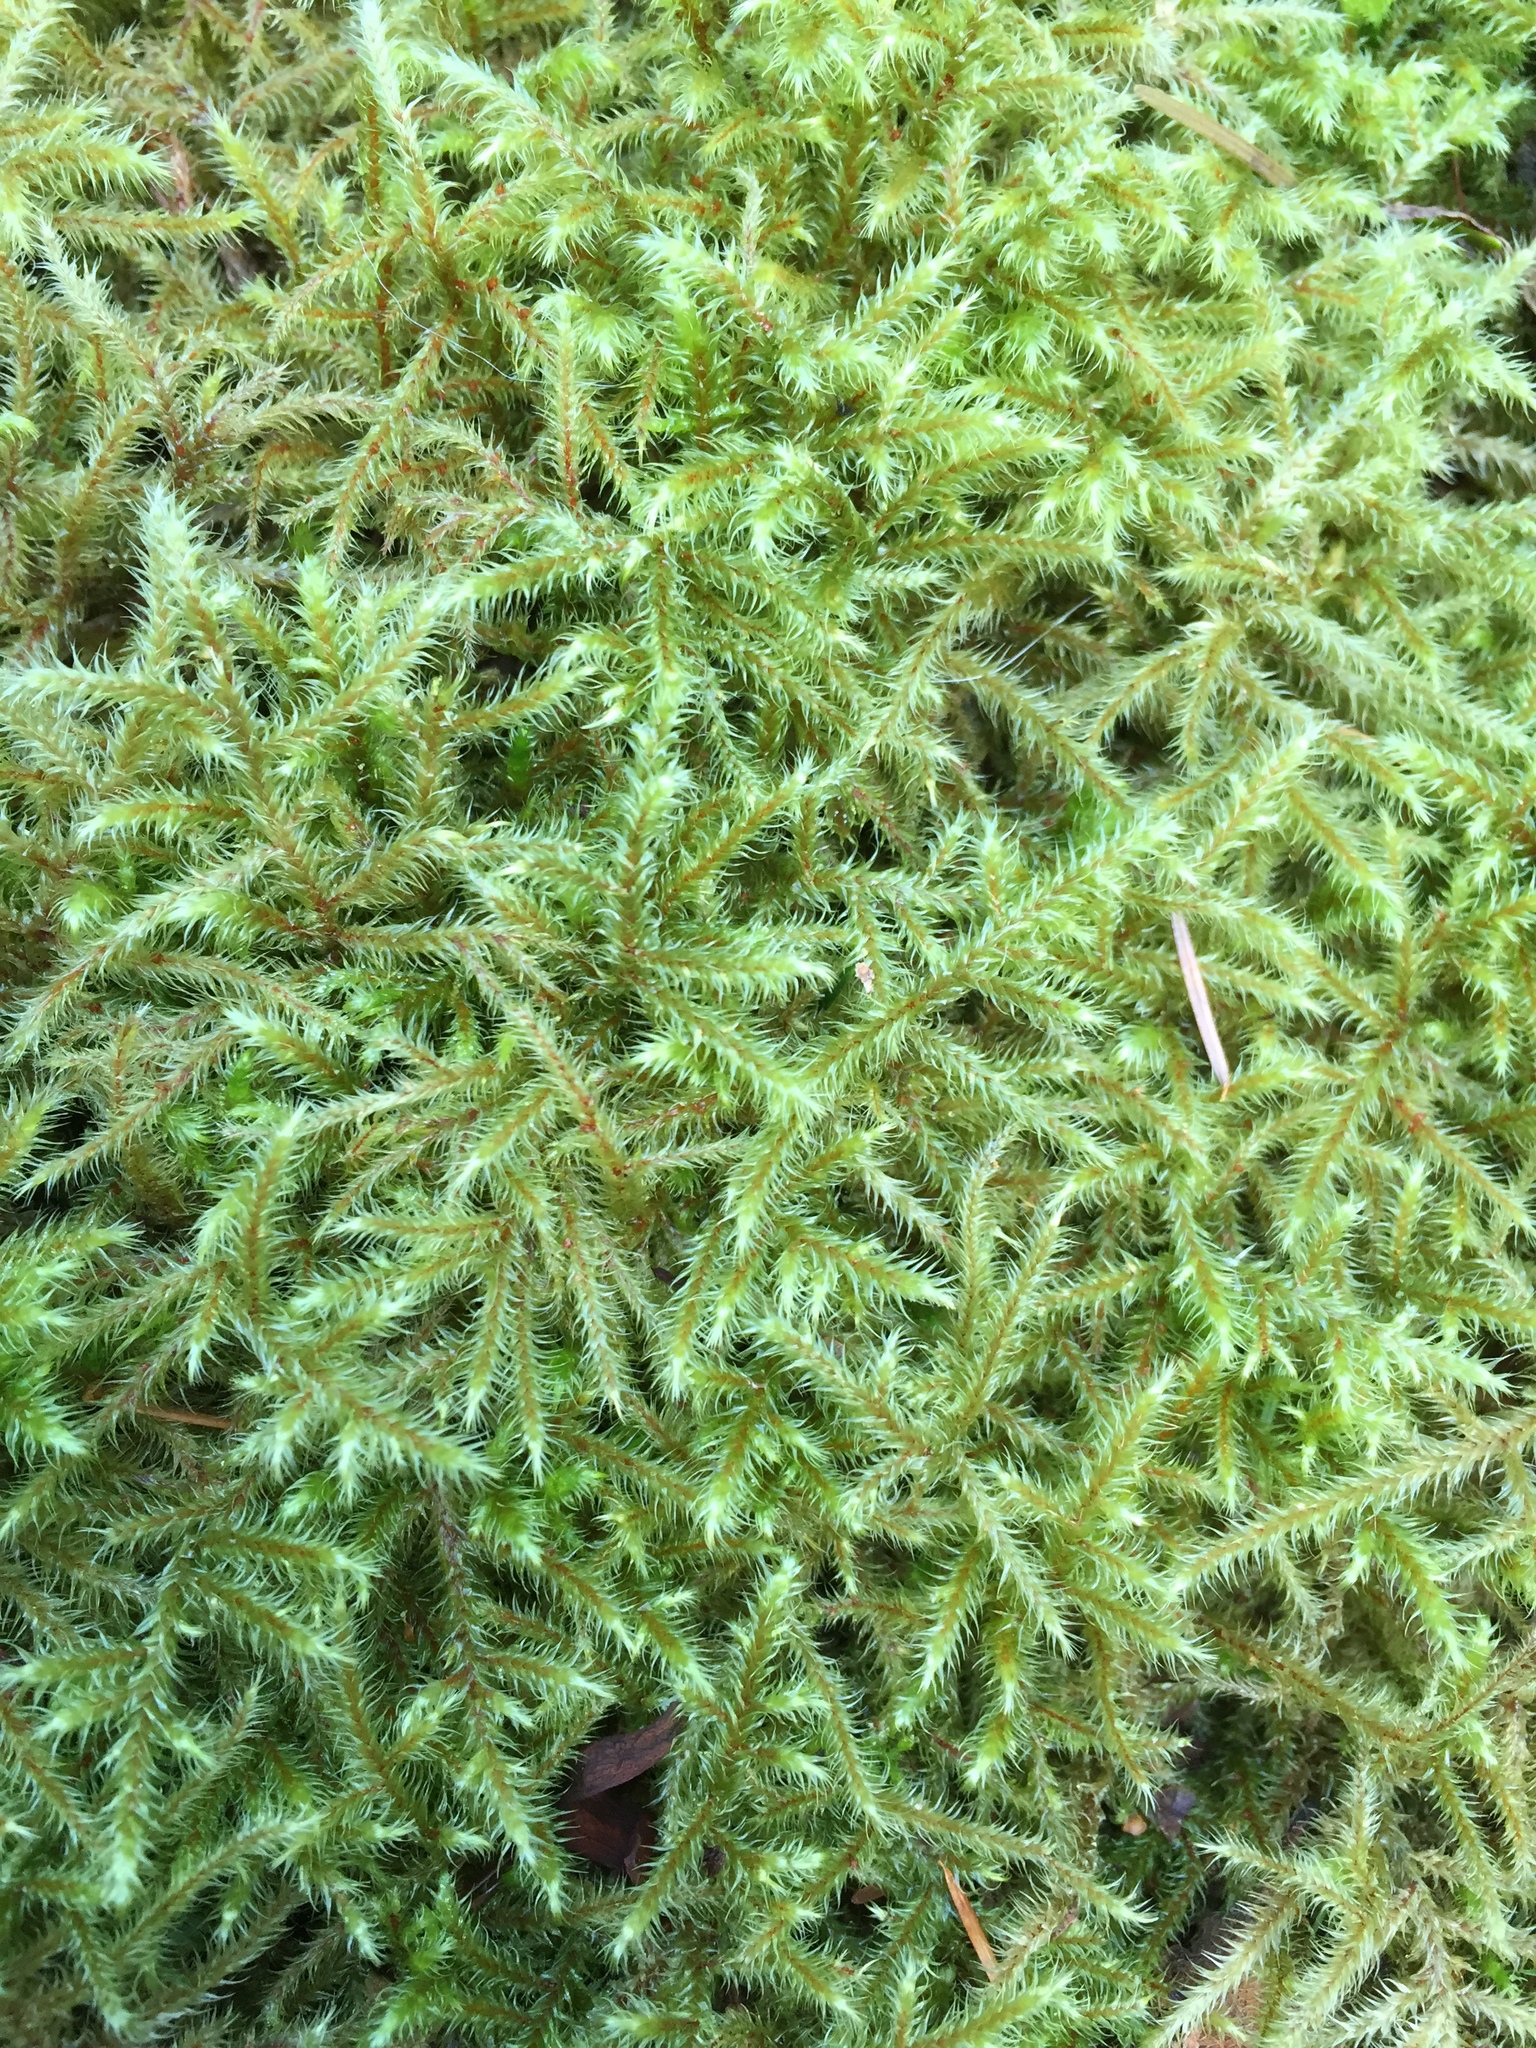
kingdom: Plantae
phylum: Bryophyta
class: Bryopsida
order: Hypnales
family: Hylocomiaceae
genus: Rhytidiadelphus
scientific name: Rhytidiadelphus loreus
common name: Lanky moss
